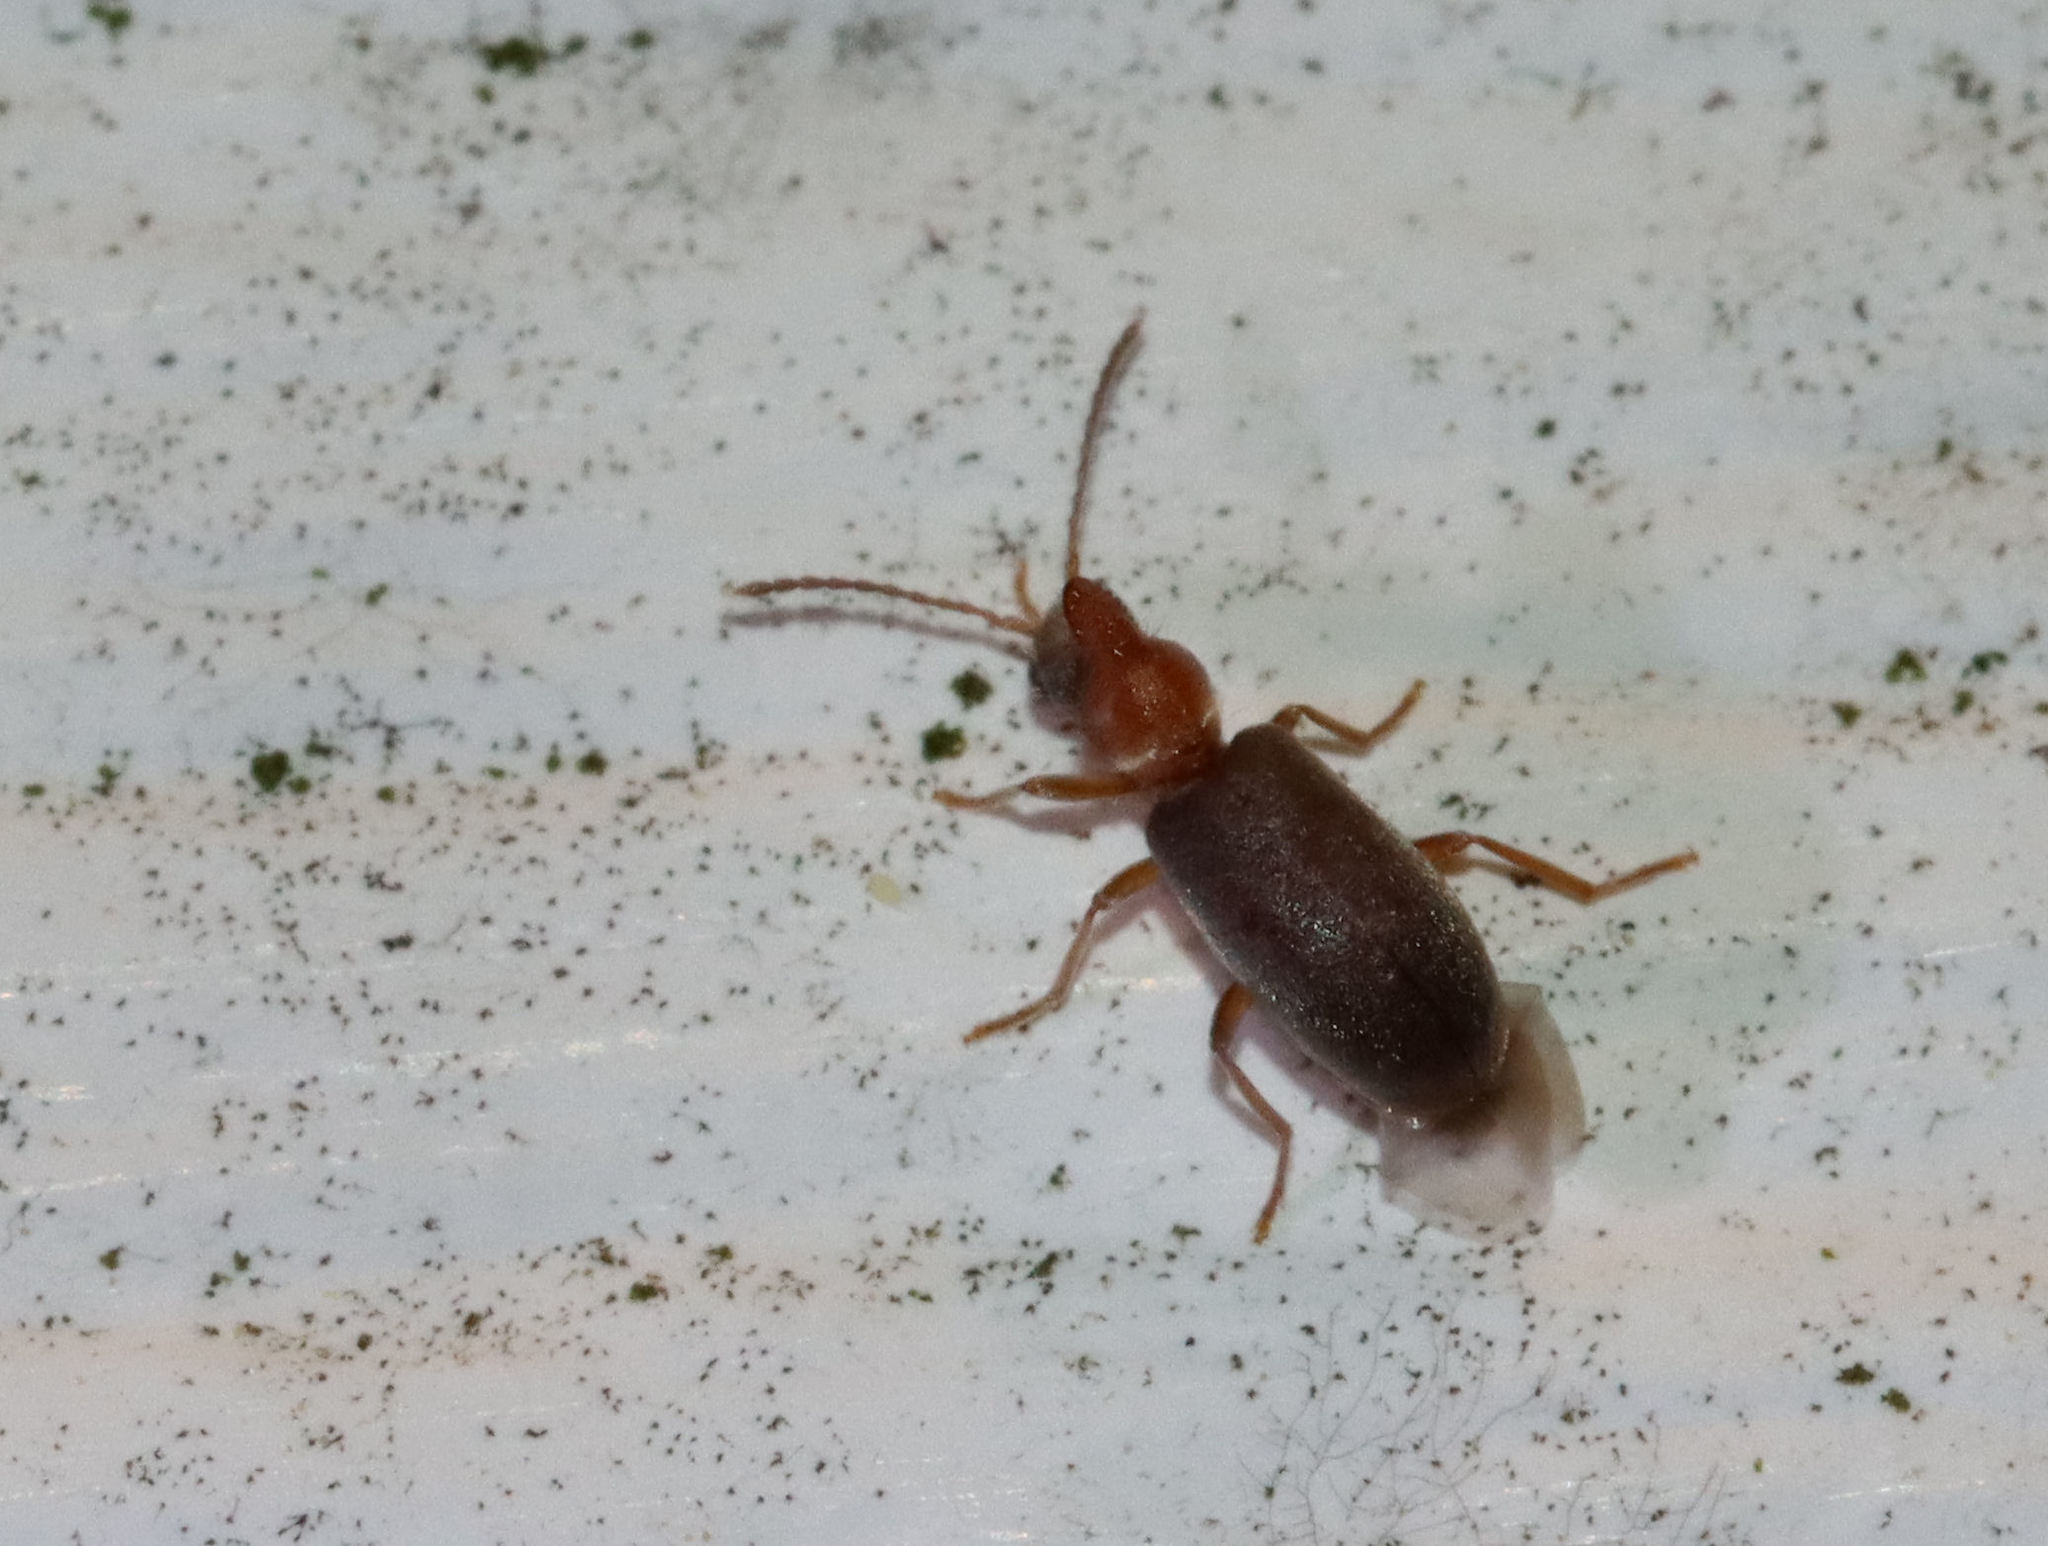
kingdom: Animalia
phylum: Arthropoda
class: Insecta
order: Coleoptera
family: Anthicidae
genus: Notoxus
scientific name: Notoxus murinipennis
